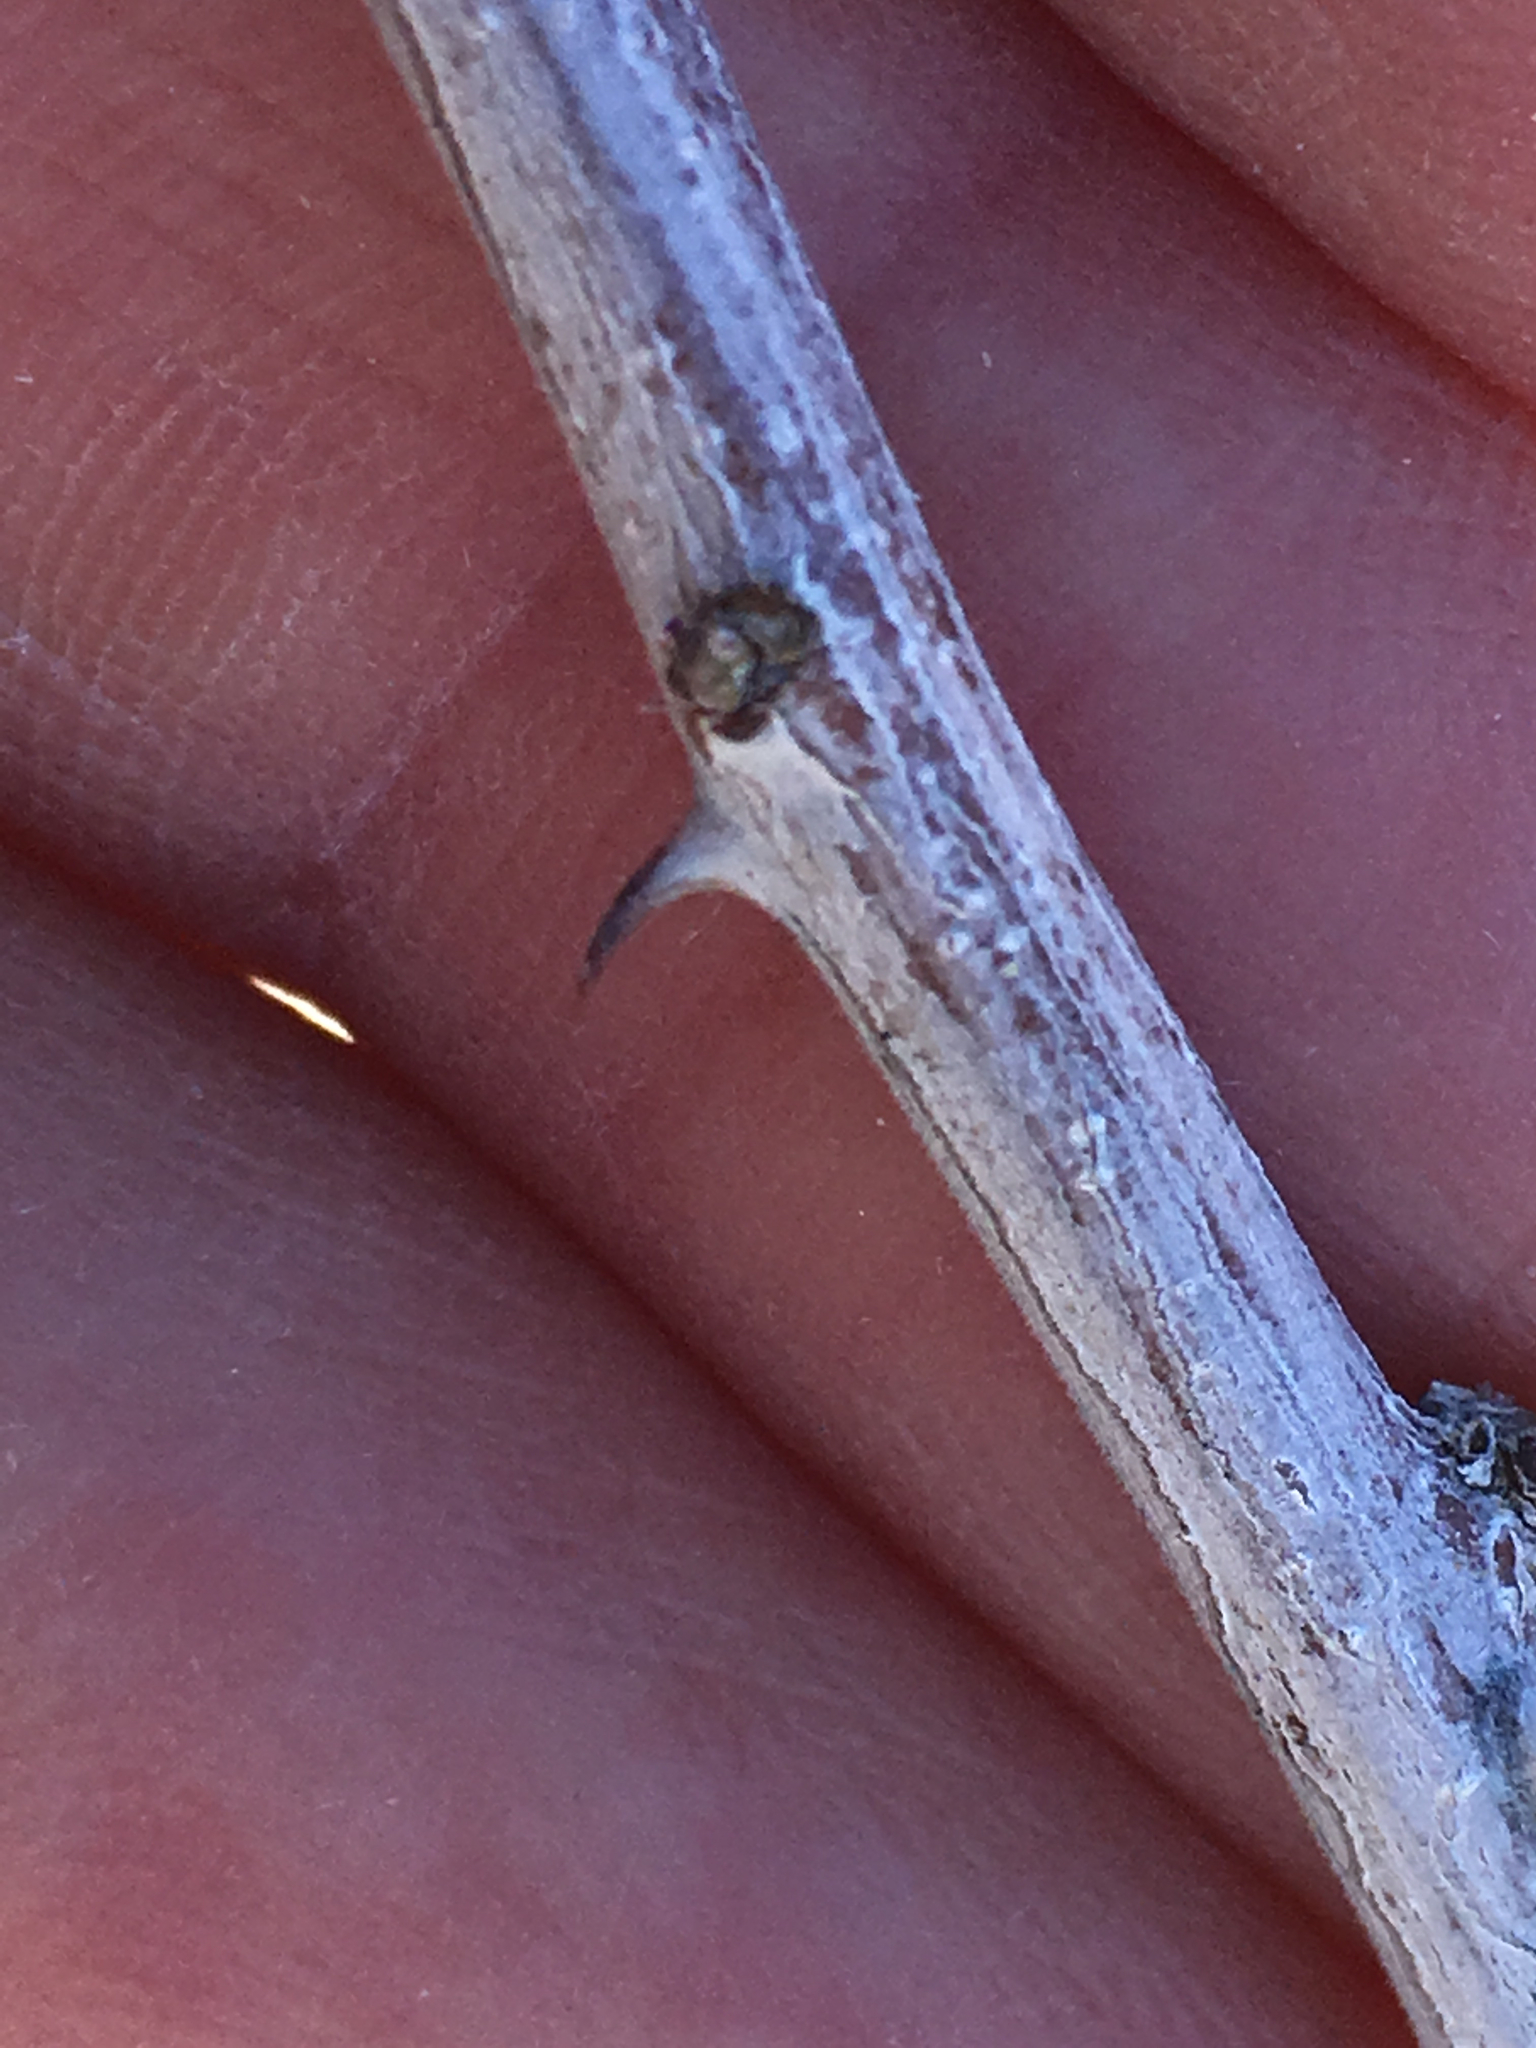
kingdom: Plantae
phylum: Tracheophyta
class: Magnoliopsida
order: Fabales
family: Fabaceae
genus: Senegalia
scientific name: Senegalia greggii
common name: Texas-mimosa
